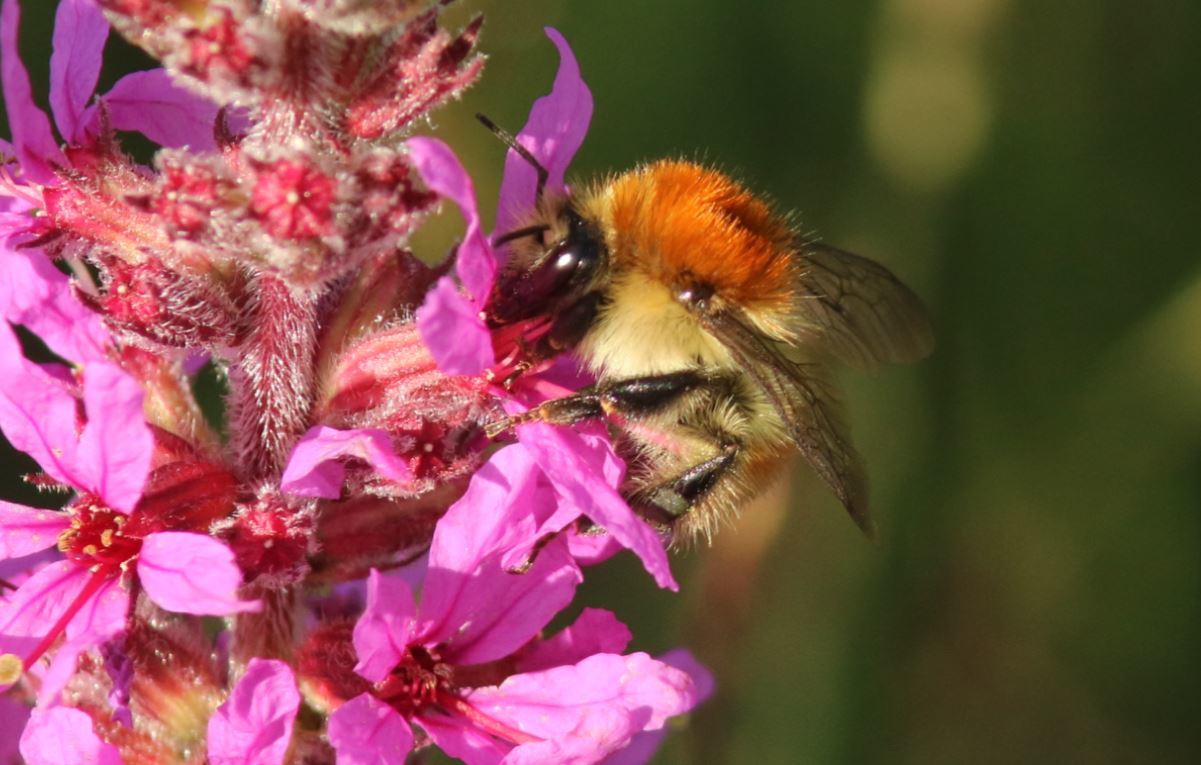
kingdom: Animalia
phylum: Arthropoda
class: Insecta
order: Hymenoptera
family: Apidae
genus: Bombus
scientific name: Bombus humilis
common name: Brown-banded carder-bee
